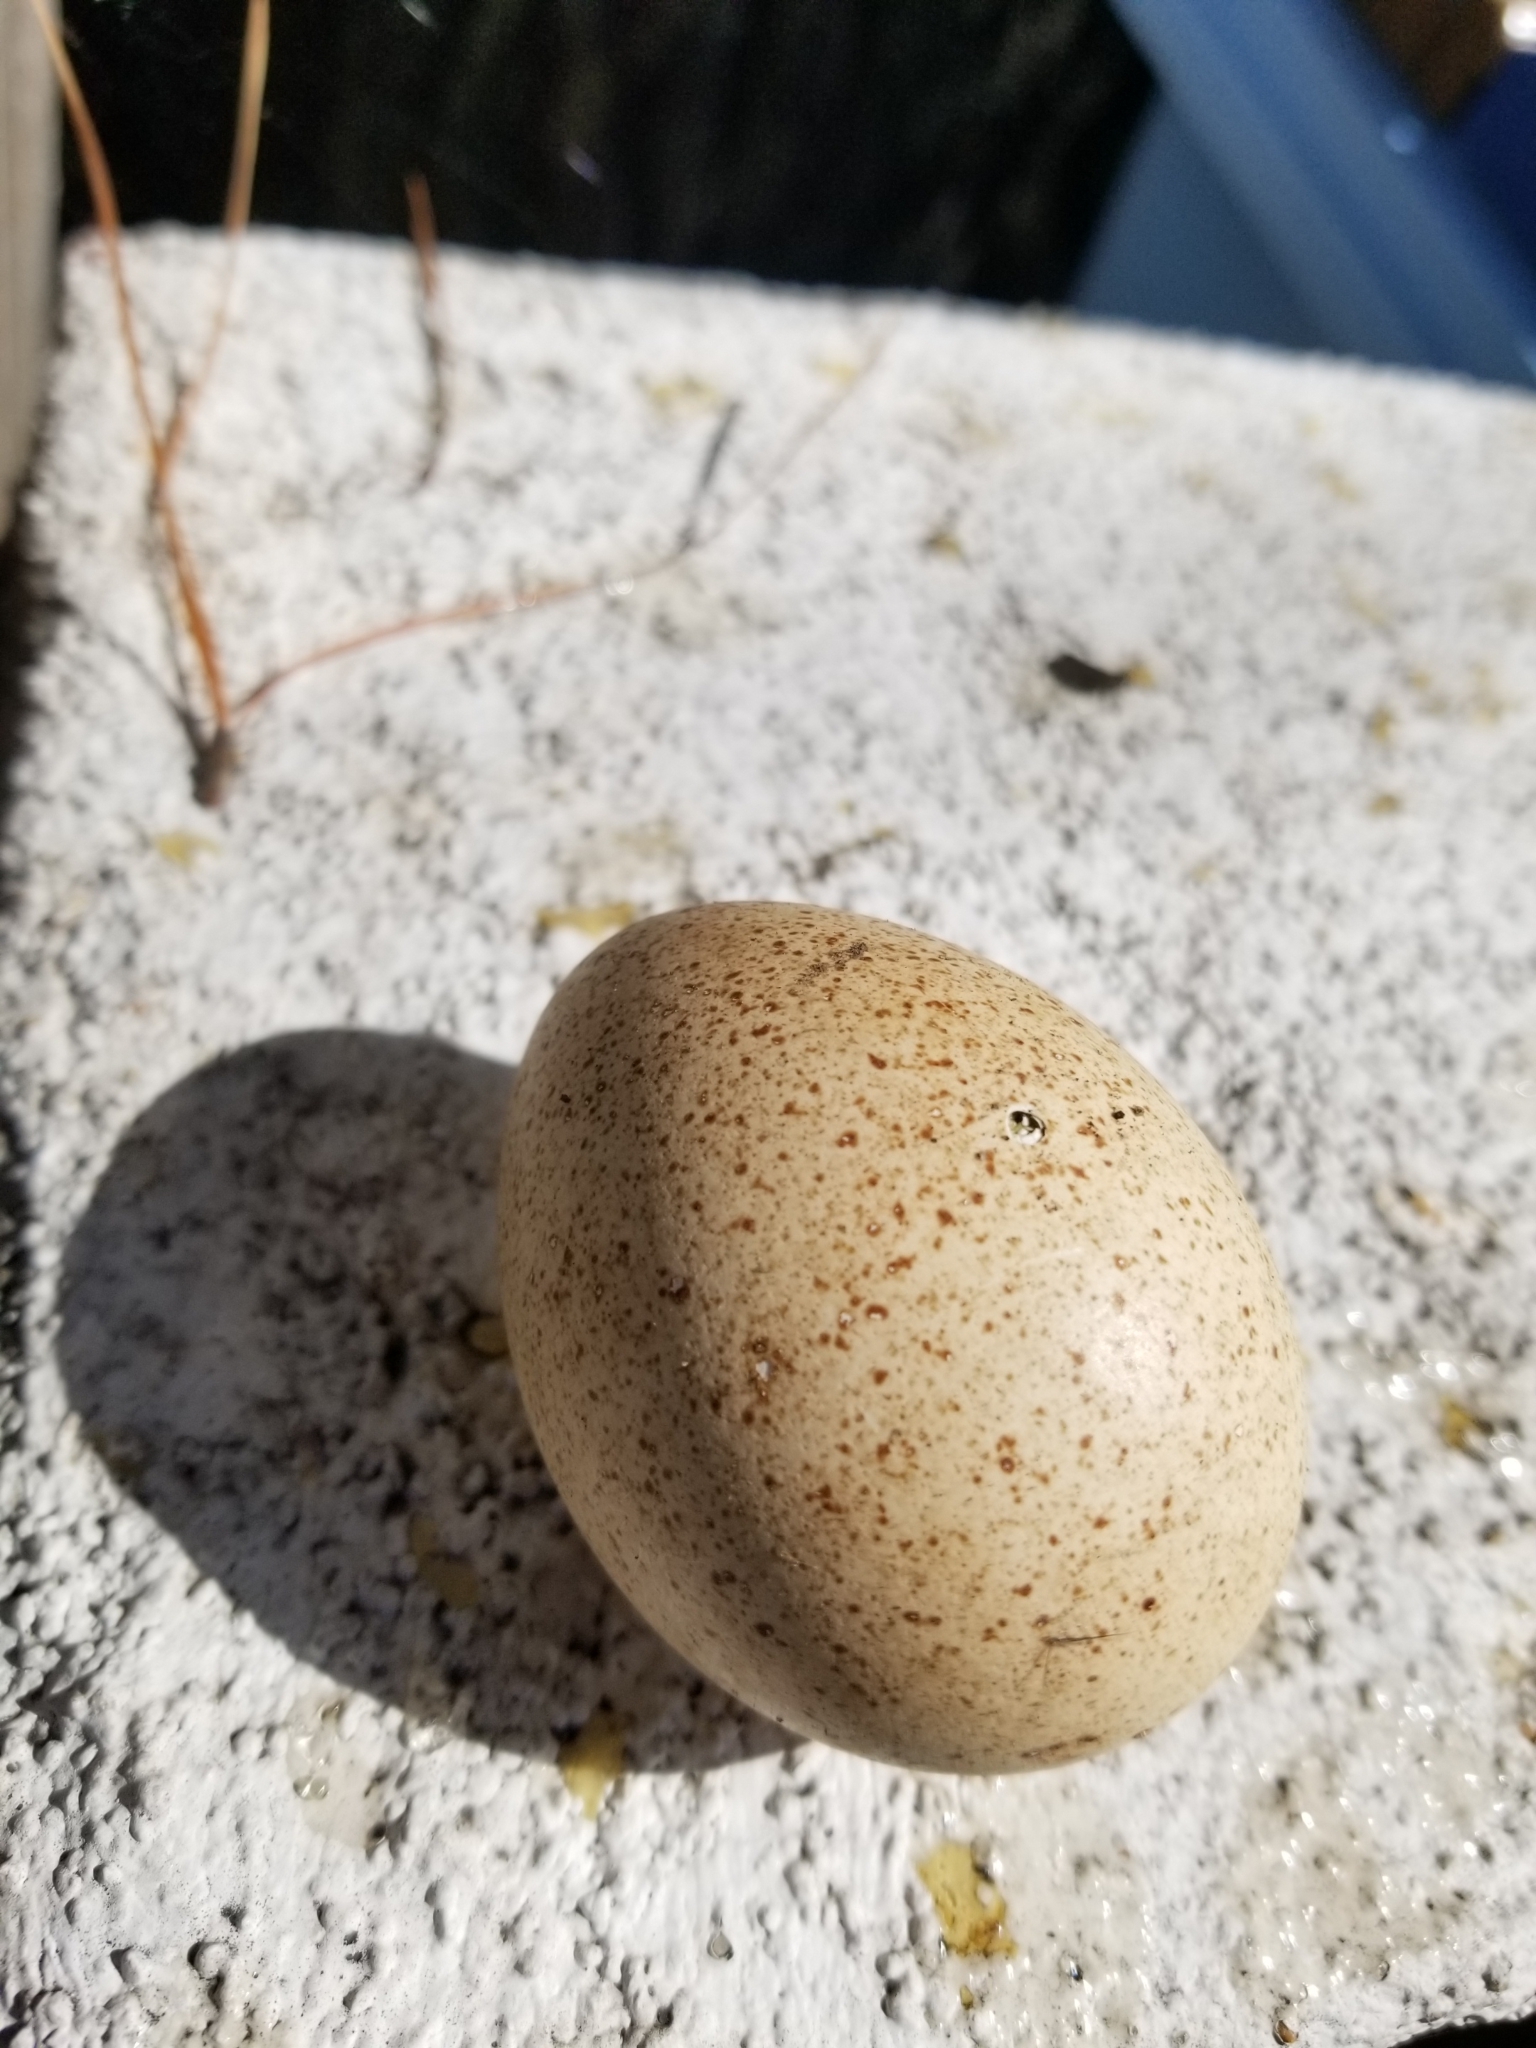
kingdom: Animalia
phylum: Chordata
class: Aves
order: Galliformes
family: Phasianidae
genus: Meleagris
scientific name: Meleagris gallopavo
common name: Wild turkey
